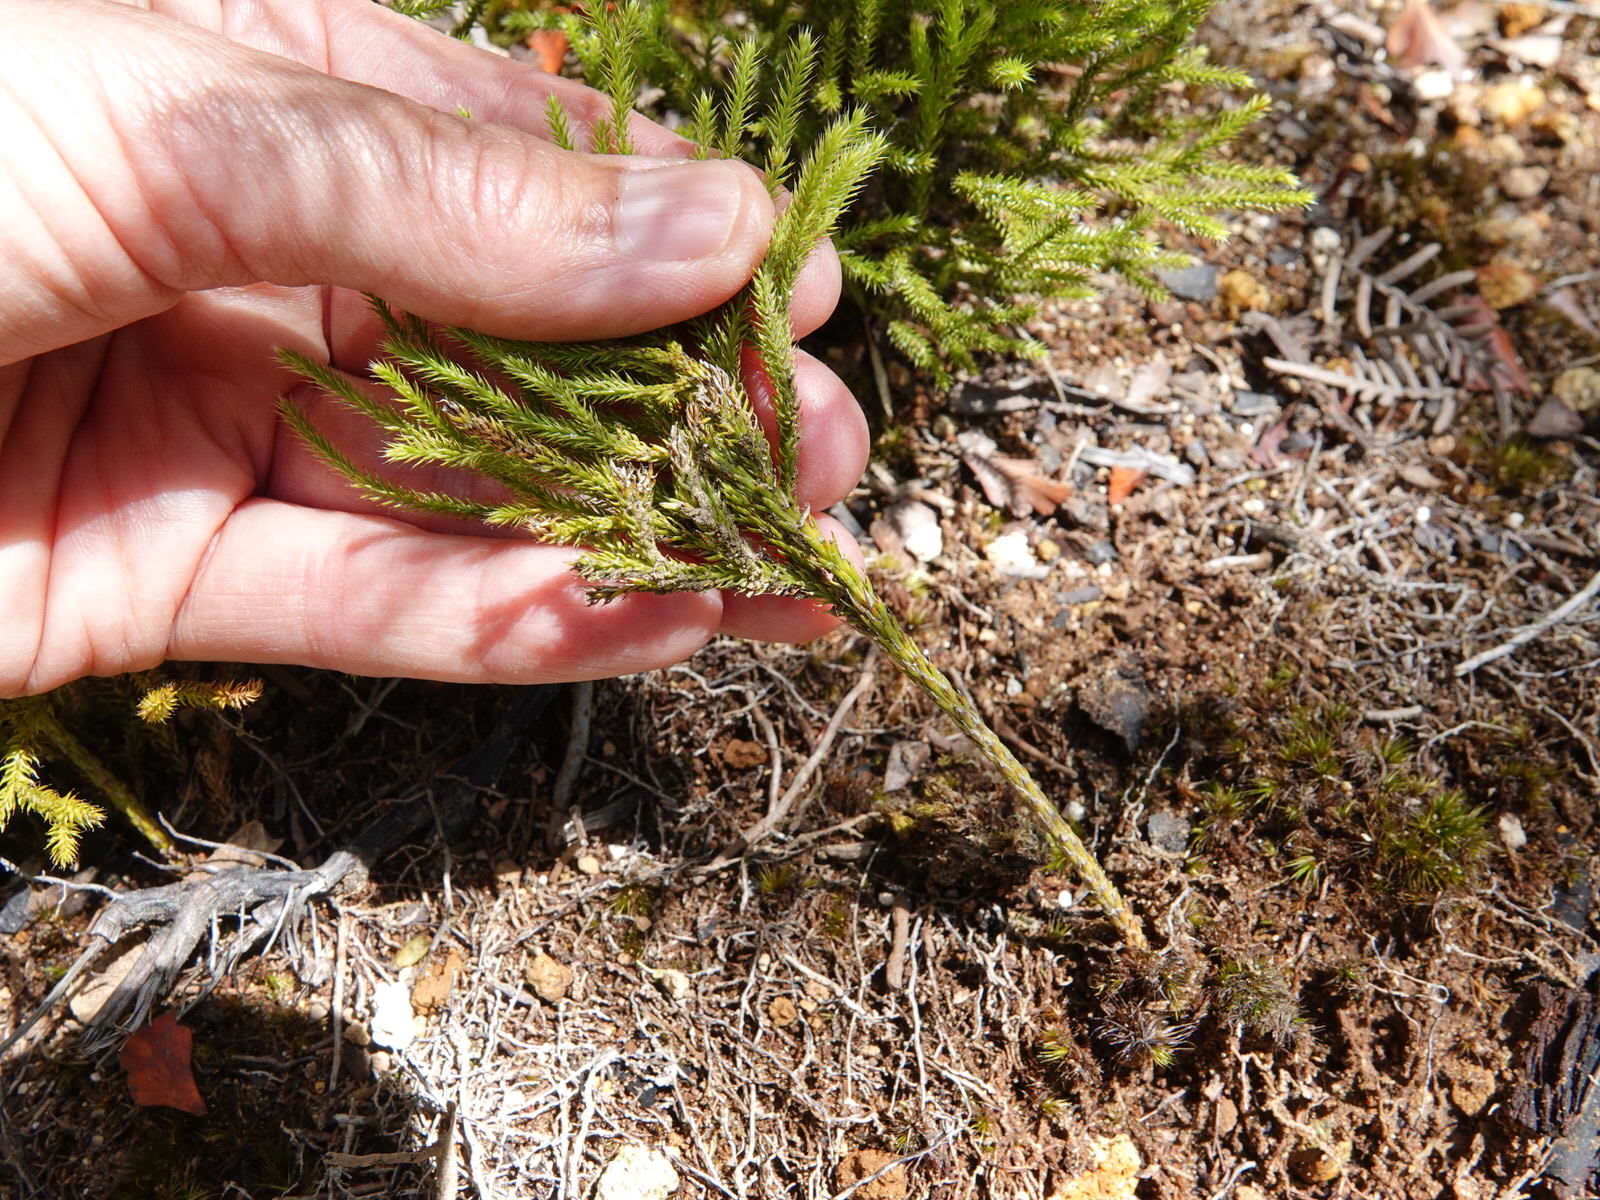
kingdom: Plantae
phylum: Tracheophyta
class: Lycopodiopsida
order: Lycopodiales
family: Lycopodiaceae
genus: Pseudolycopodium
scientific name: Pseudolycopodium densum
